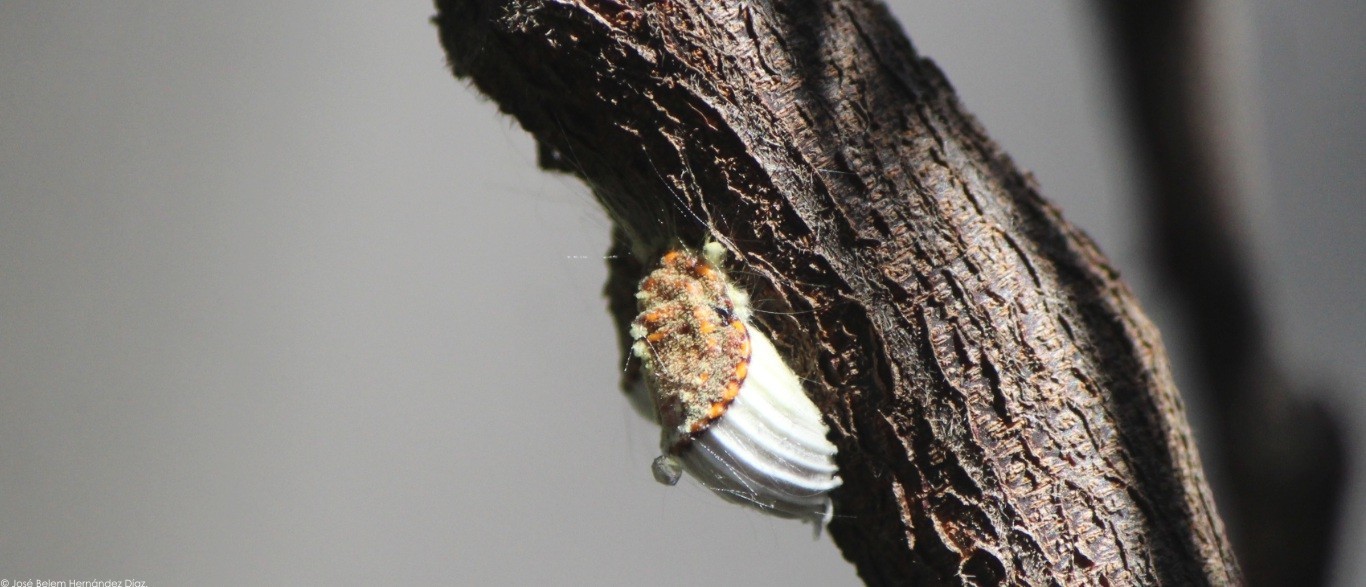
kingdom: Animalia
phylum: Arthropoda
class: Insecta
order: Hemiptera
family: Margarodidae
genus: Icerya
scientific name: Icerya purchasi
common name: Cottony cushion scale
